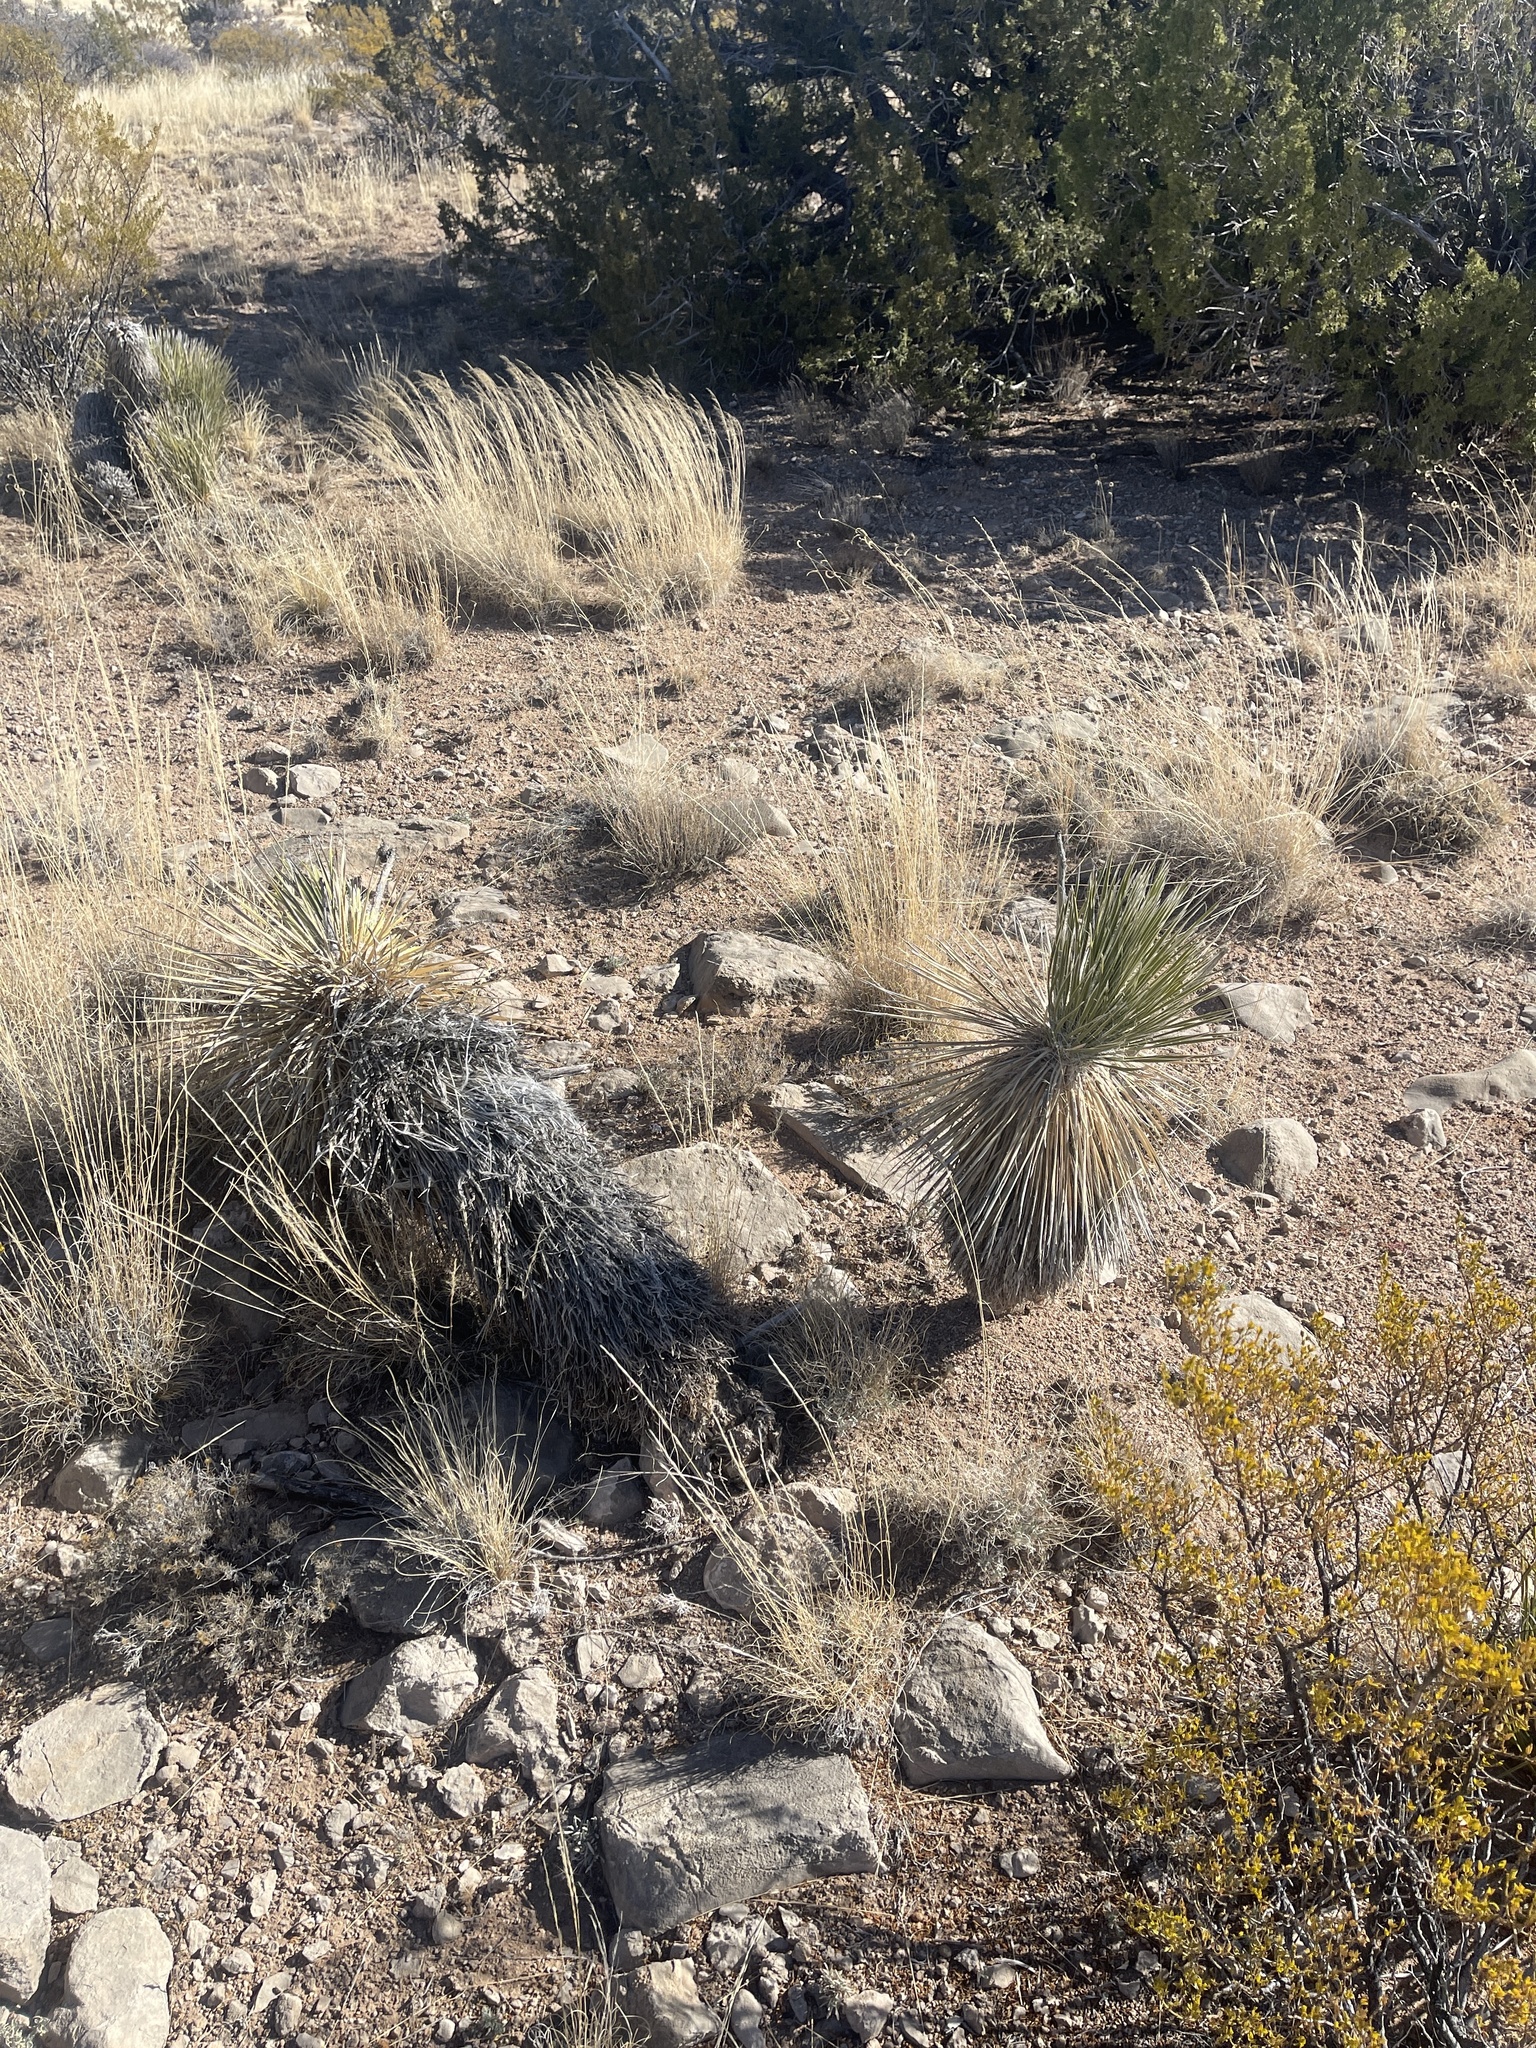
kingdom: Plantae
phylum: Tracheophyta
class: Liliopsida
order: Asparagales
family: Asparagaceae
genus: Yucca
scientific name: Yucca elata
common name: Palmella
